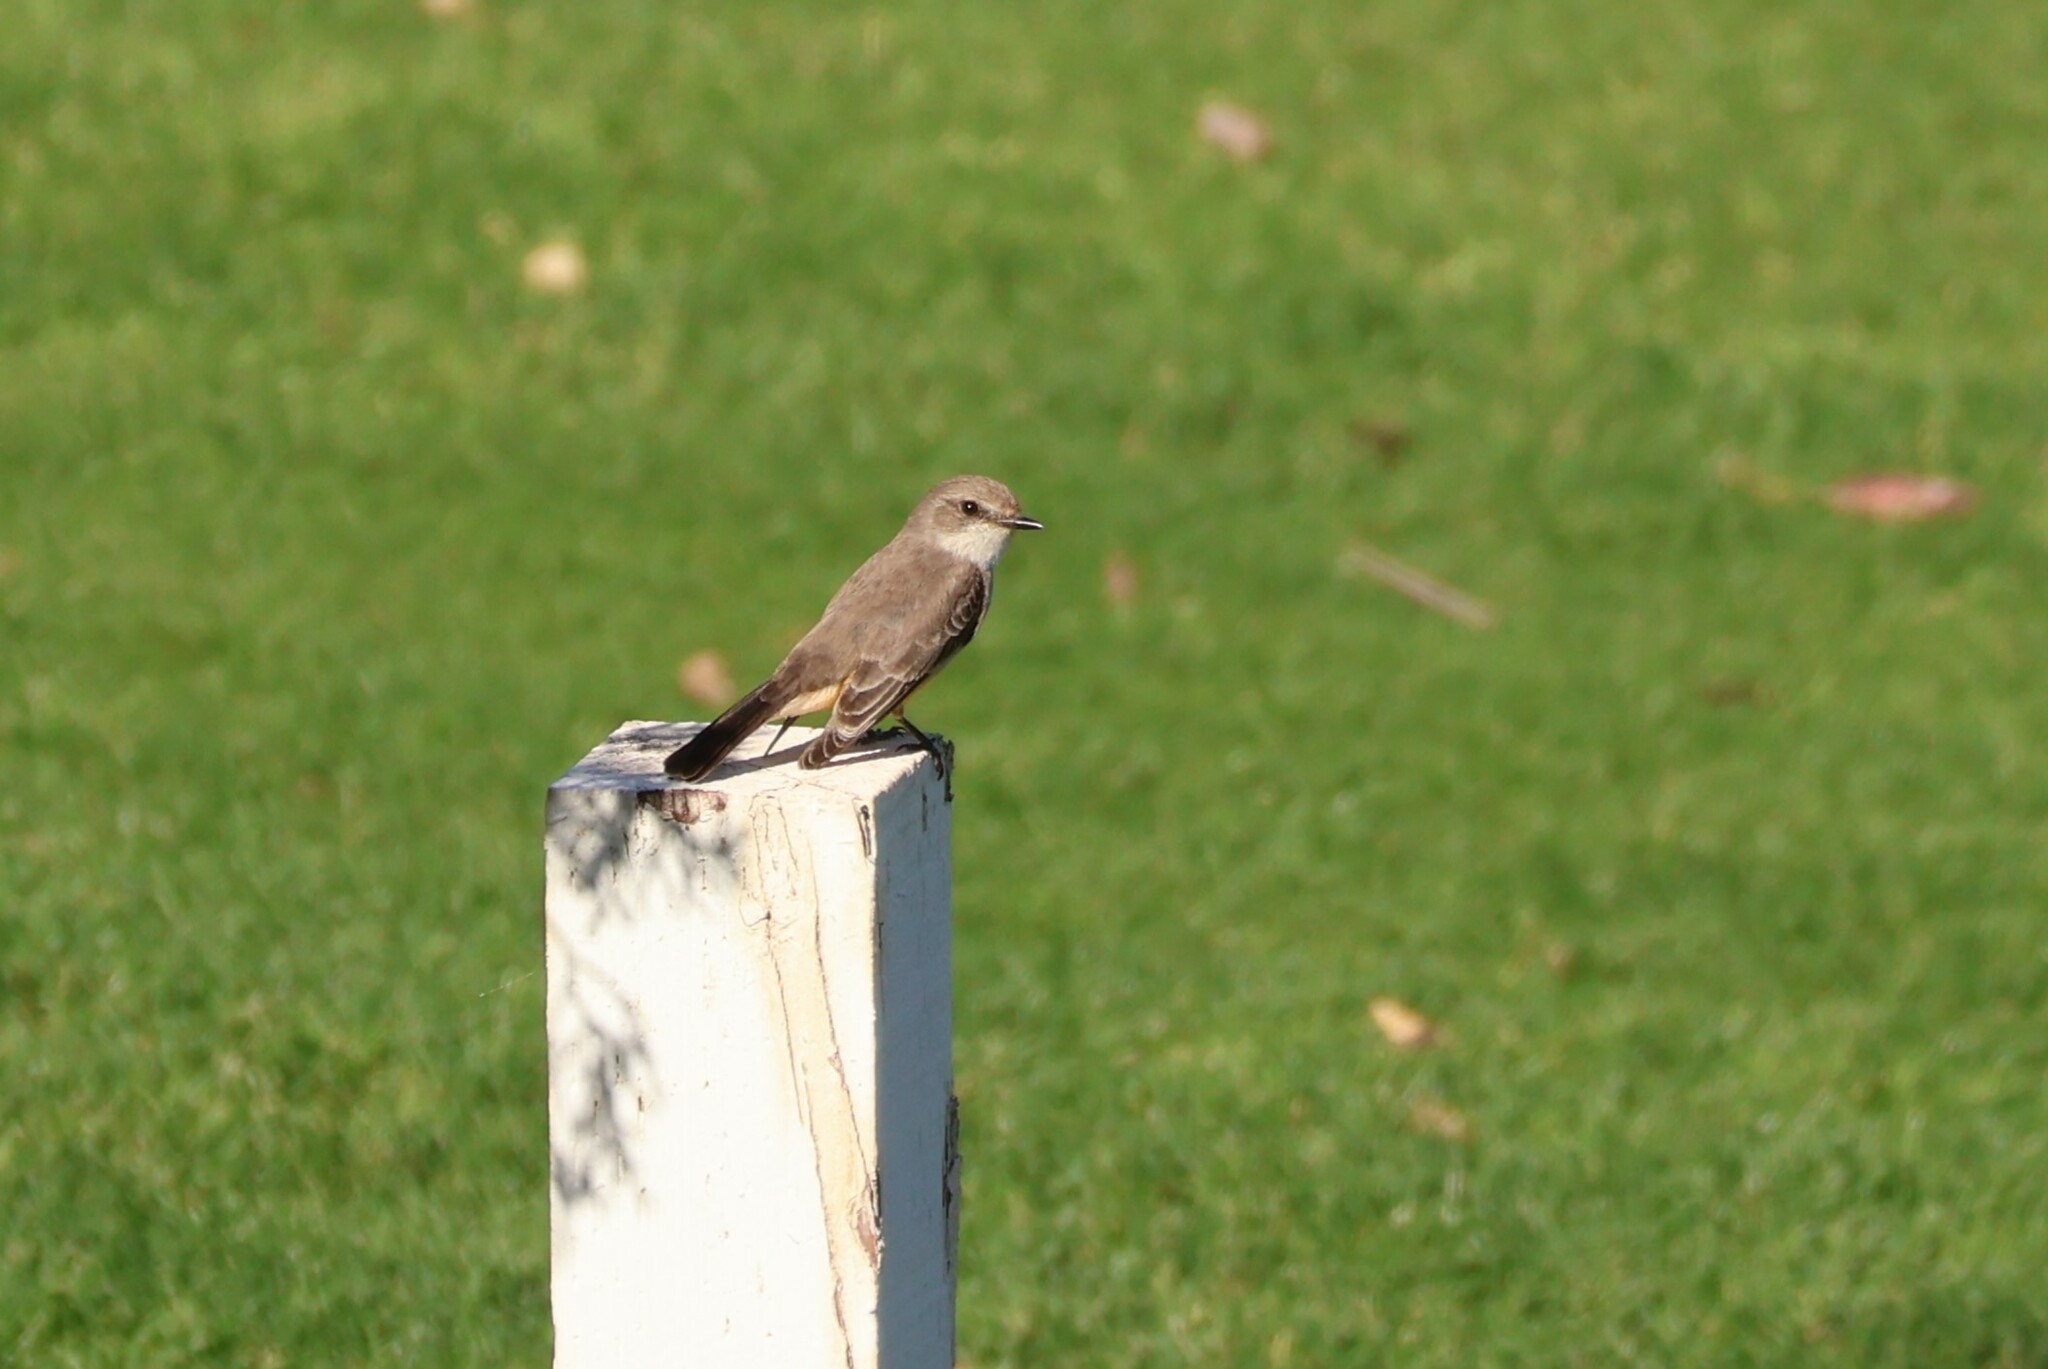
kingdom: Animalia
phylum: Chordata
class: Aves
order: Passeriformes
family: Tyrannidae
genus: Pyrocephalus
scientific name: Pyrocephalus rubinus
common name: Vermilion flycatcher
